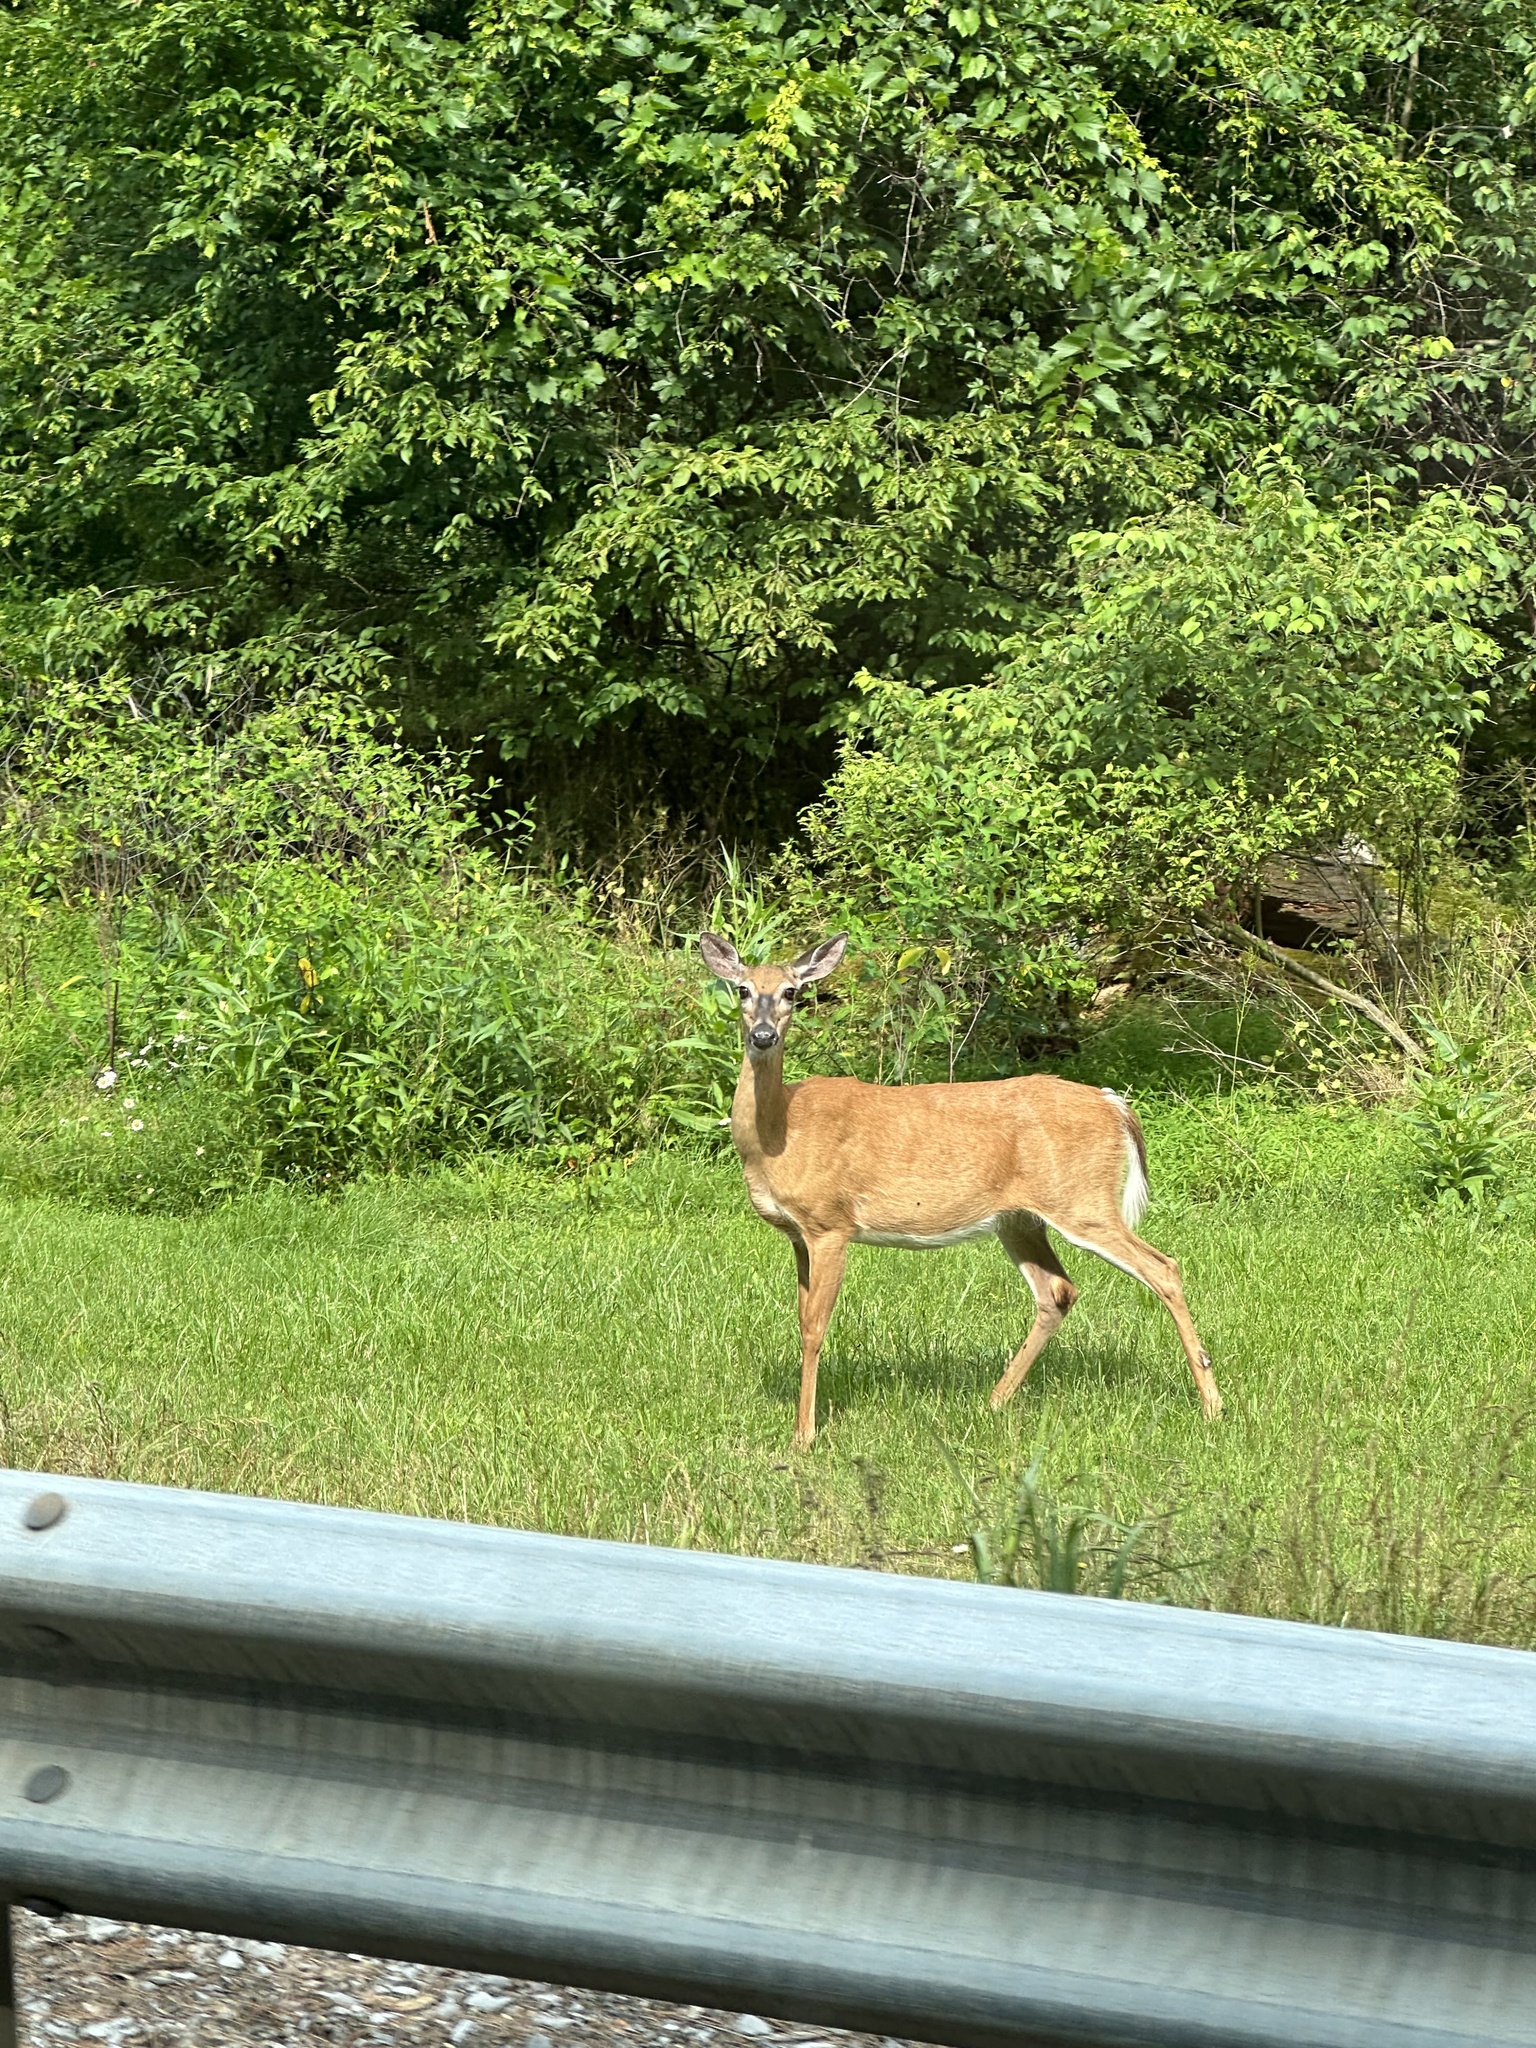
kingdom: Animalia
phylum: Chordata
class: Mammalia
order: Artiodactyla
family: Cervidae
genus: Odocoileus
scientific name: Odocoileus virginianus
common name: White-tailed deer
